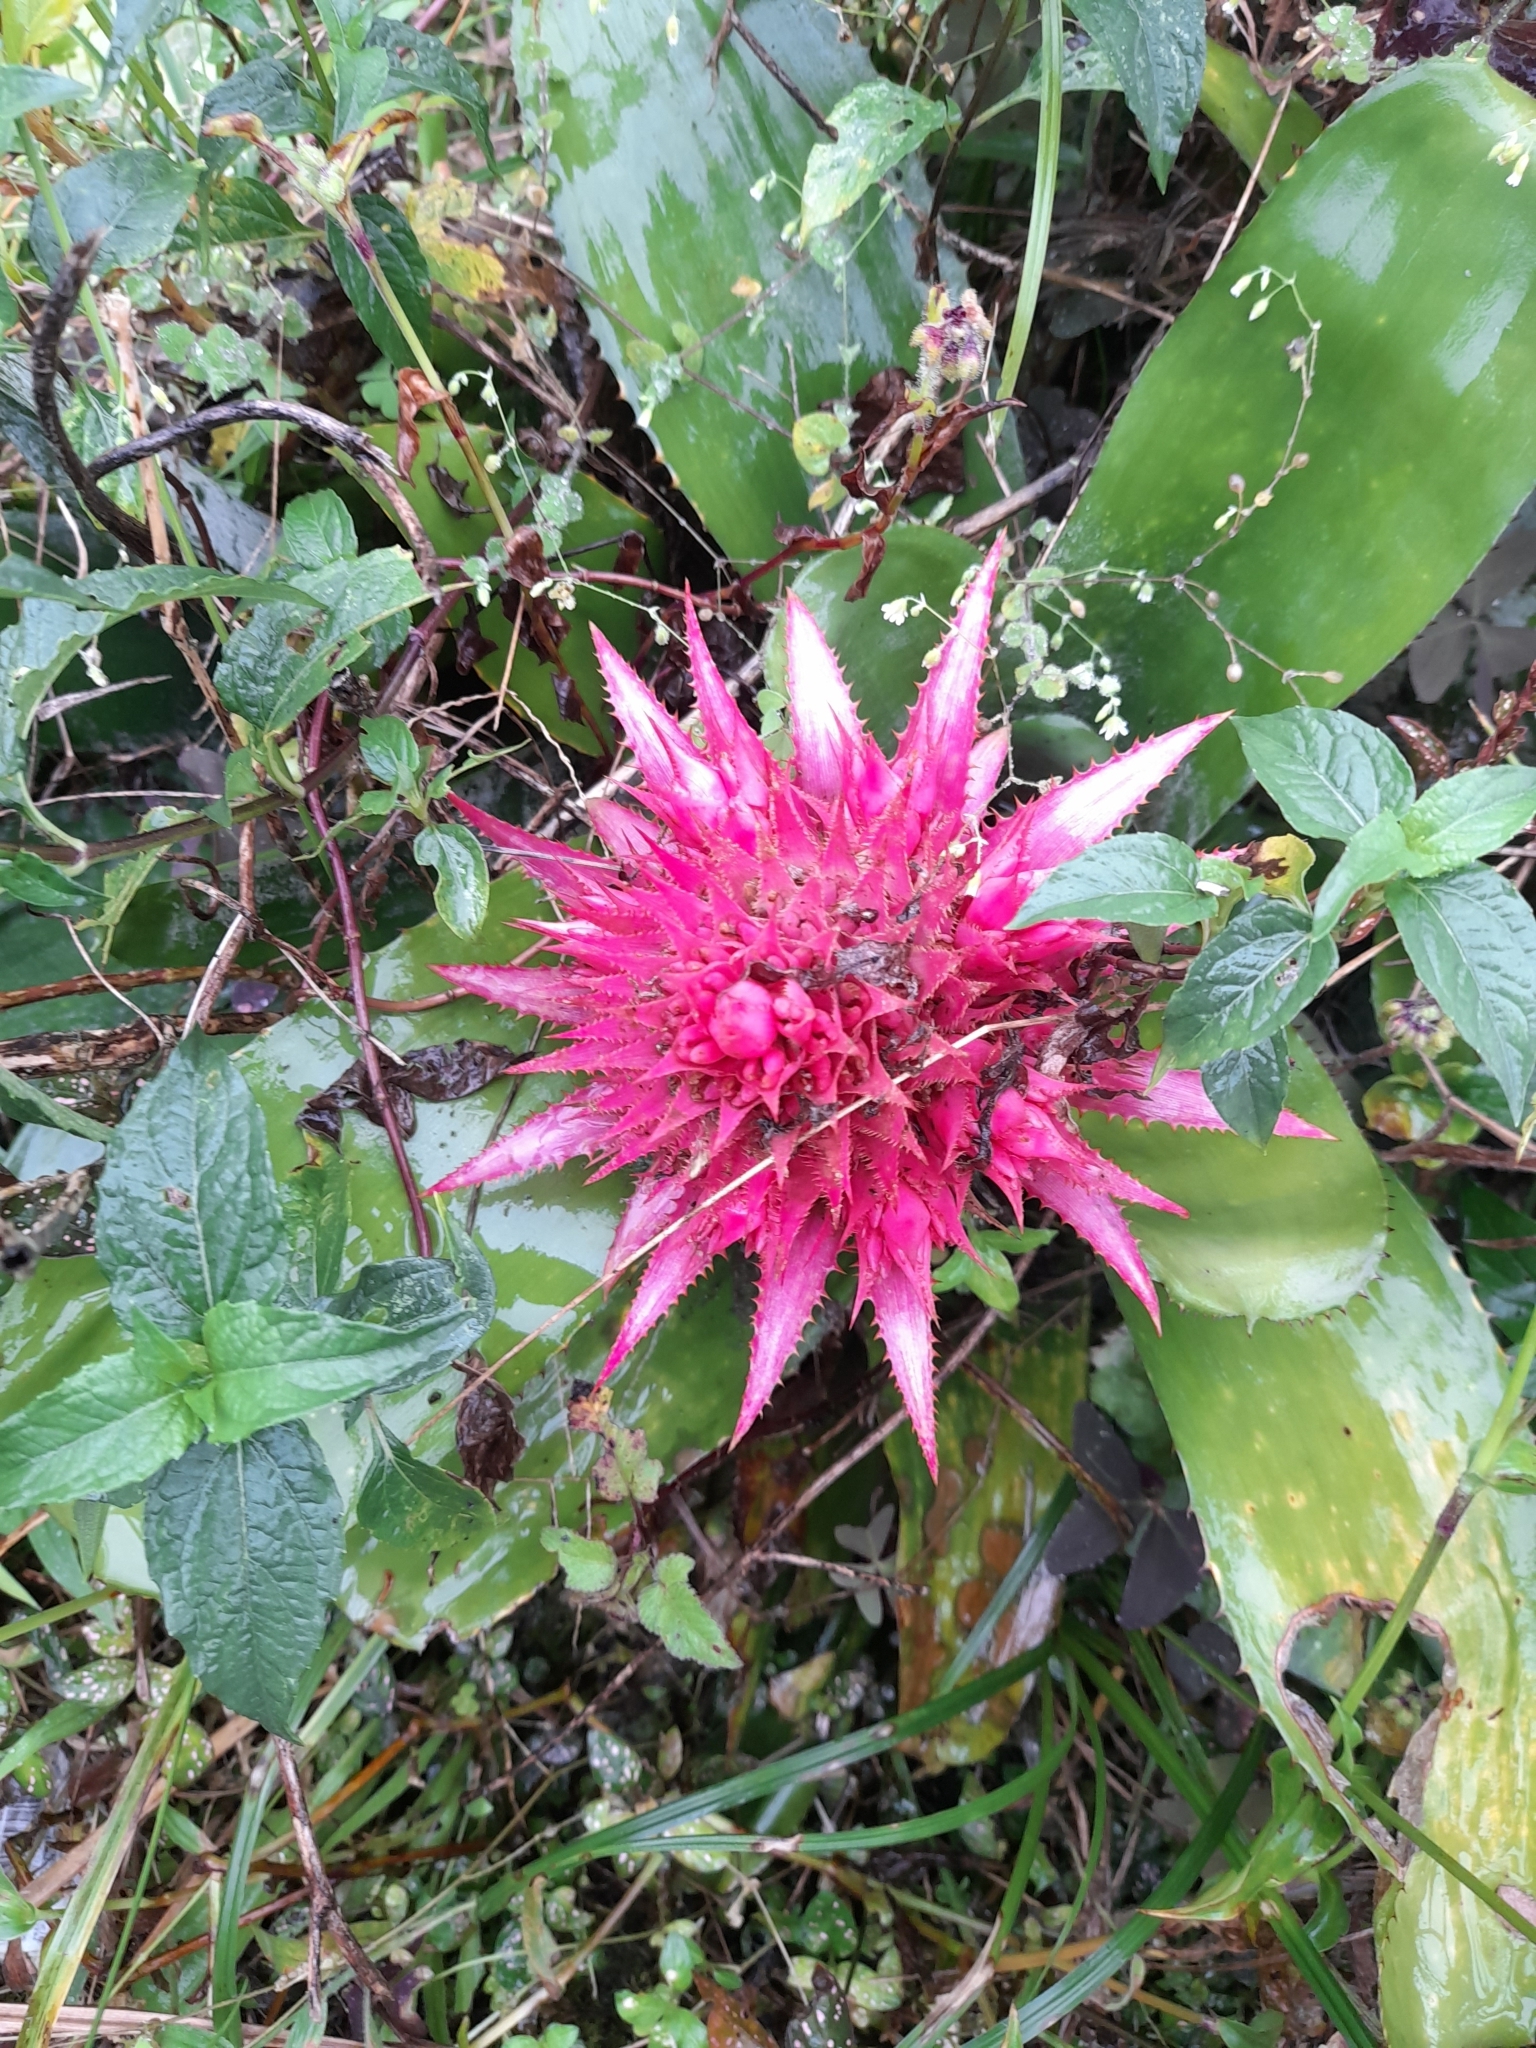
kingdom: Plantae
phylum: Tracheophyta
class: Liliopsida
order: Poales
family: Bromeliaceae
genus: Aechmea
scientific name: Aechmea fasciata
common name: Urnplant
